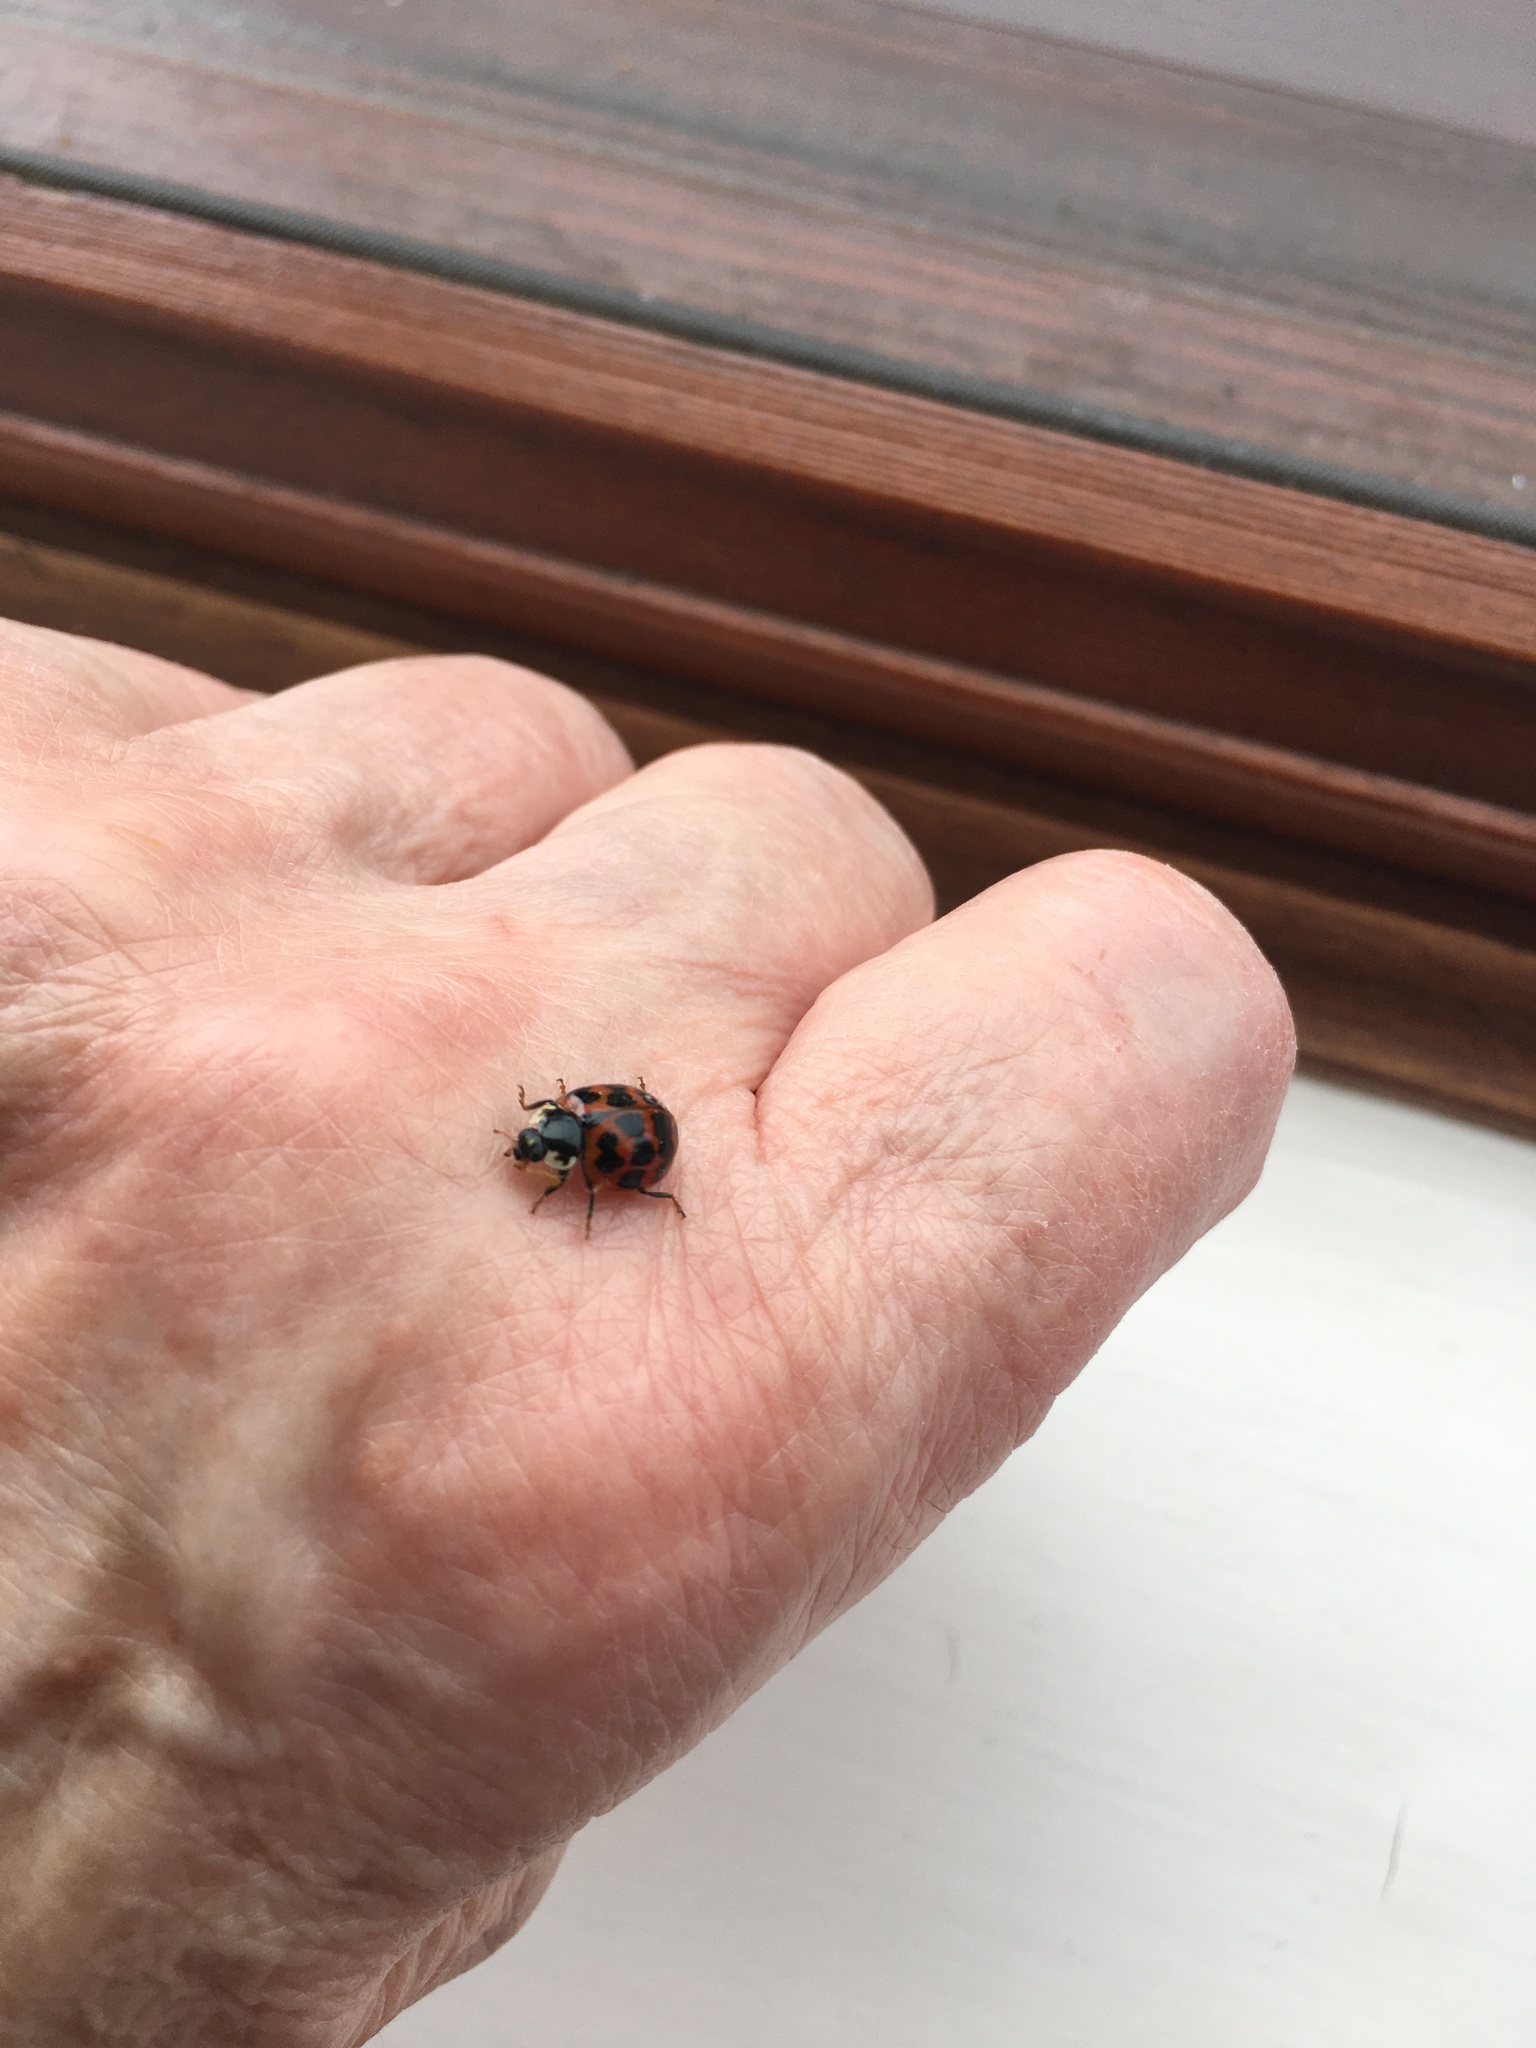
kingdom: Animalia
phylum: Arthropoda
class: Insecta
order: Coleoptera
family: Coccinellidae
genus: Harmonia
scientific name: Harmonia axyridis
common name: Harlequin ladybird
